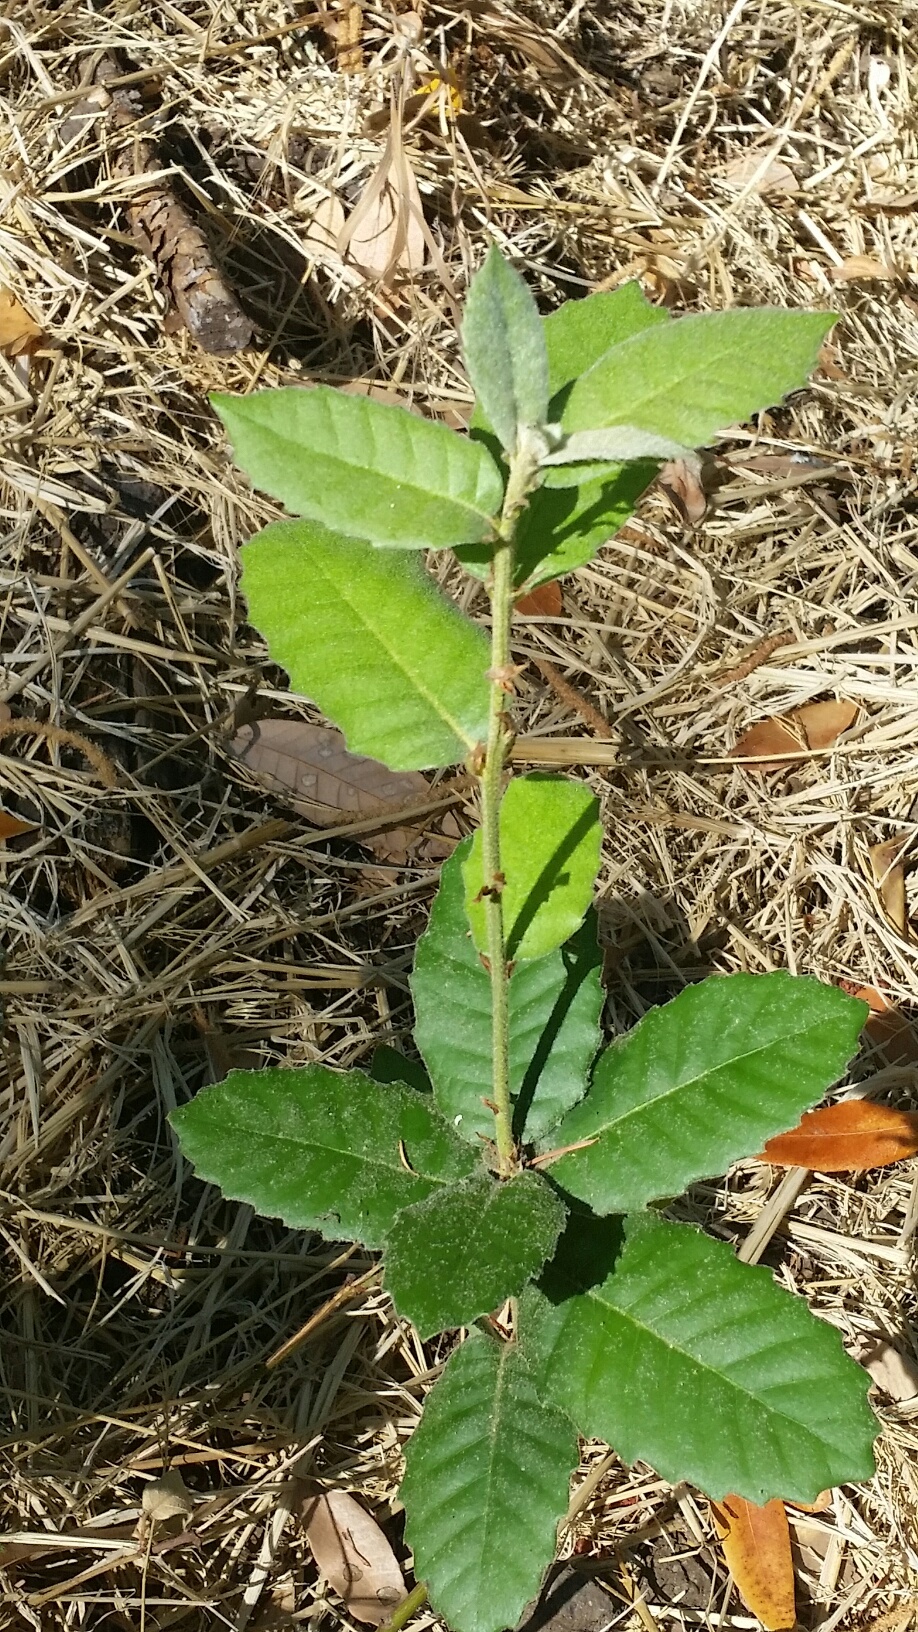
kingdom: Plantae
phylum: Tracheophyta
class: Magnoliopsida
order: Fagales
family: Fagaceae
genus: Notholithocarpus
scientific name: Notholithocarpus densiflorus
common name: Tan bark oak
